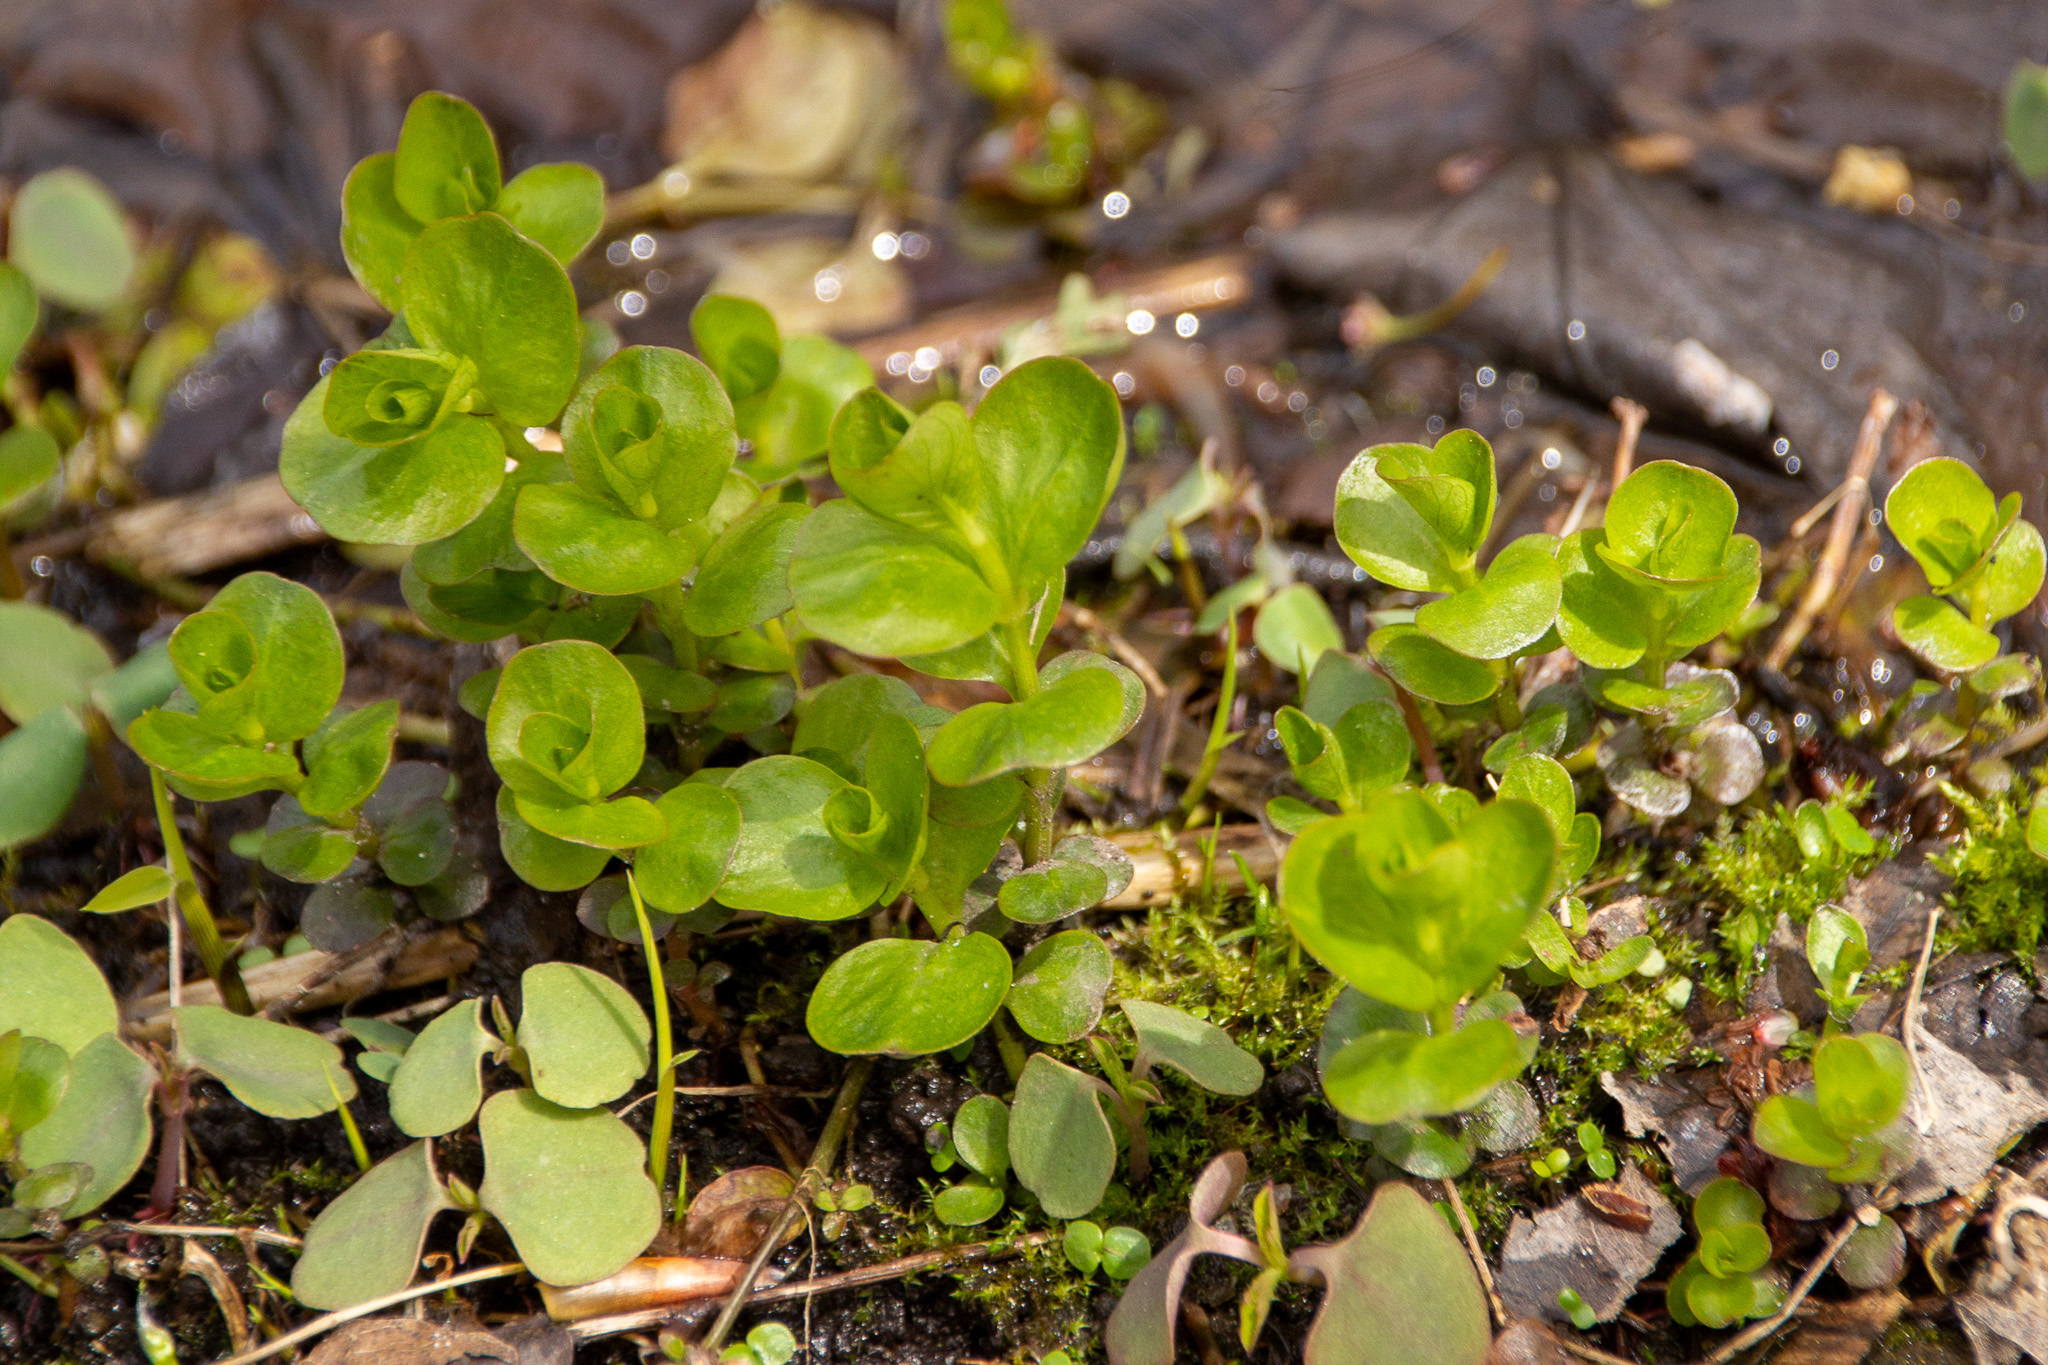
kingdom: Plantae
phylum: Tracheophyta
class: Magnoliopsida
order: Ericales
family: Primulaceae
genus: Lysimachia
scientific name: Lysimachia nummularia
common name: Moneywort
